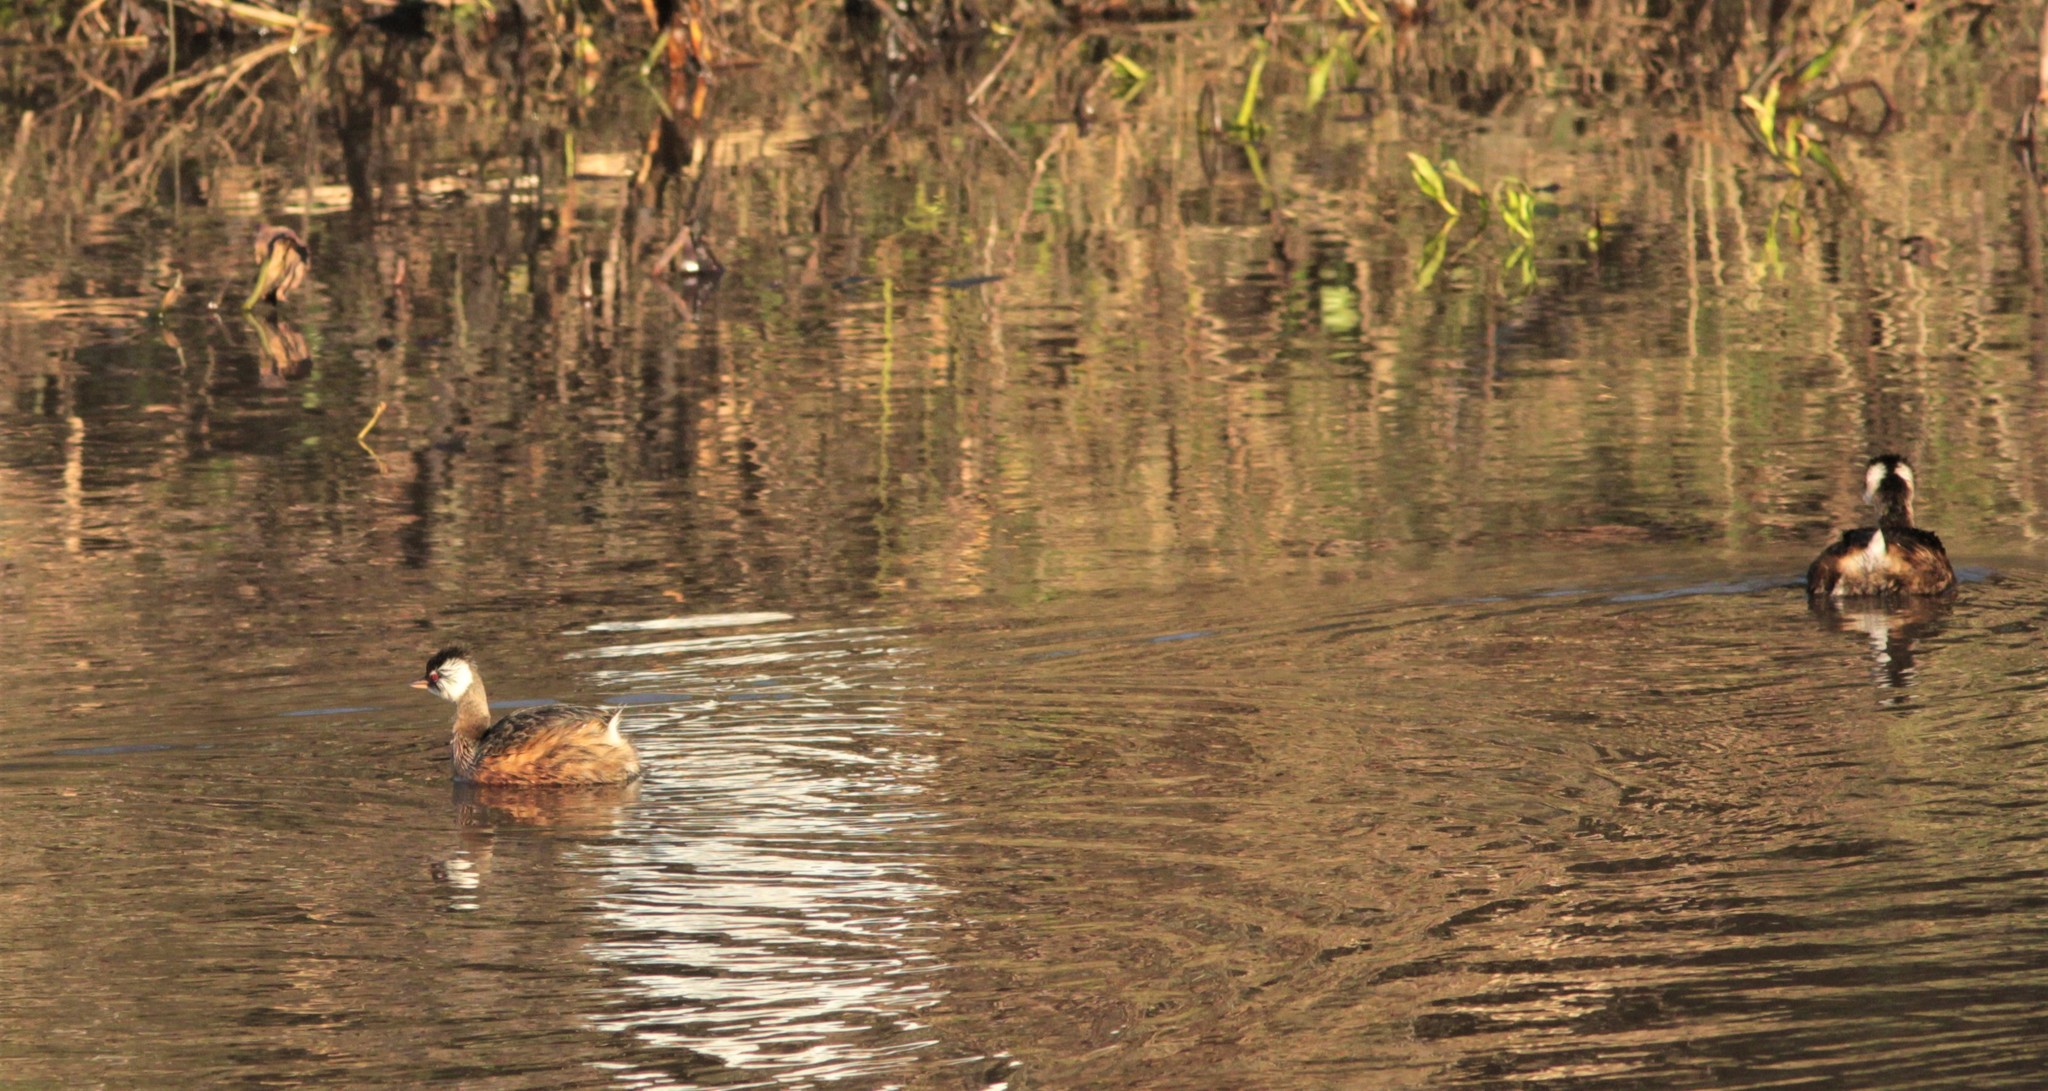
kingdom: Animalia
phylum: Chordata
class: Aves
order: Podicipediformes
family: Podicipedidae
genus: Rollandia
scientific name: Rollandia rolland
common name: White-tufted grebe
